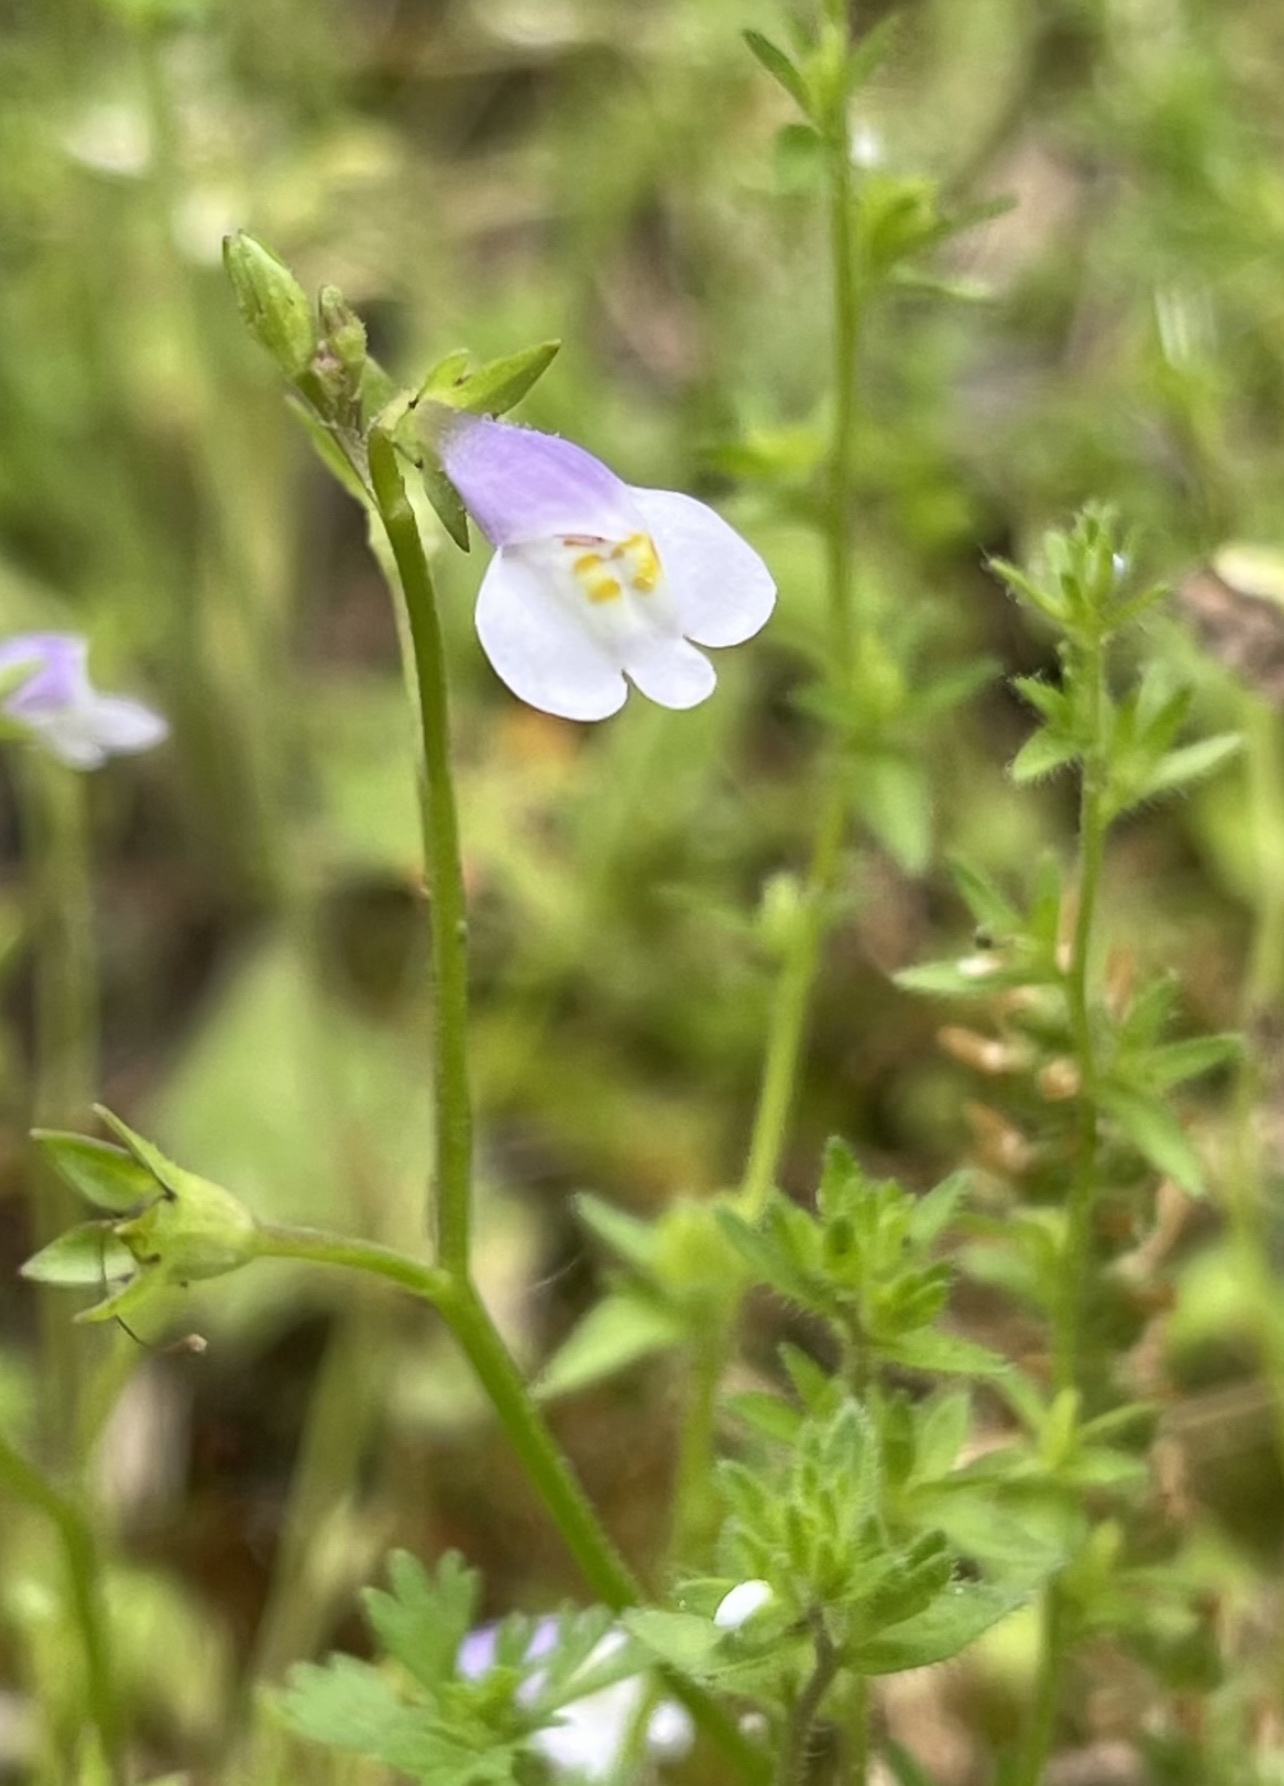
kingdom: Plantae
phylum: Tracheophyta
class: Magnoliopsida
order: Lamiales
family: Mazaceae
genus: Mazus
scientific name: Mazus pumilus
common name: Japanese mazus
